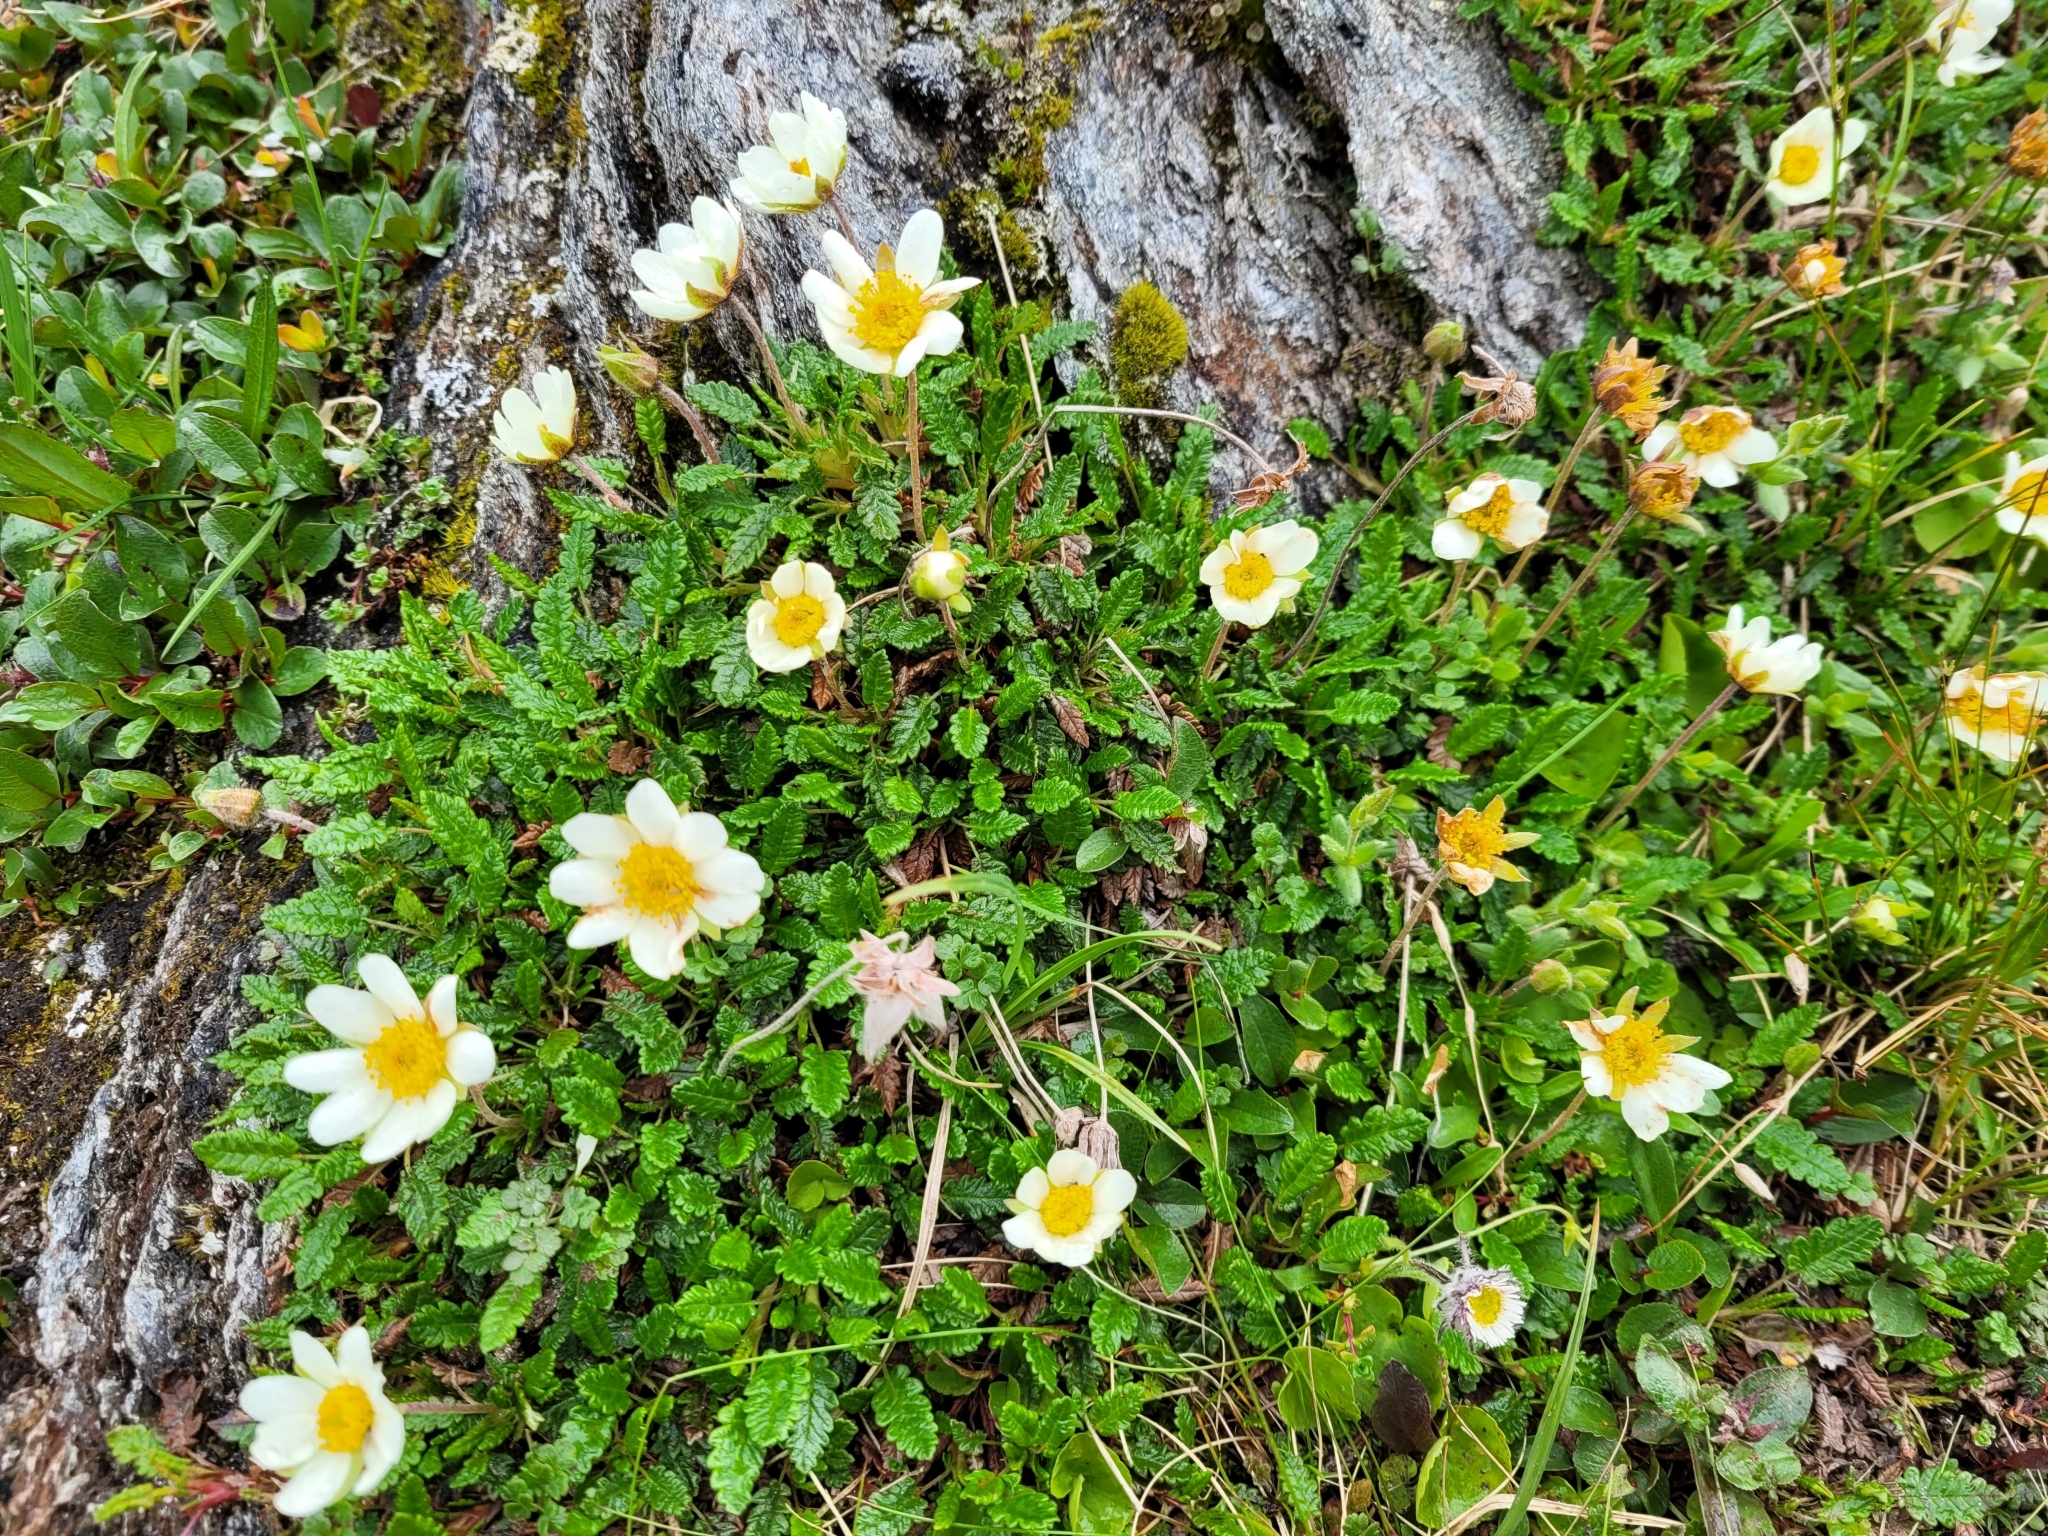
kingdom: Plantae
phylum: Tracheophyta
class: Magnoliopsida
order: Rosales
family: Rosaceae
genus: Dryas
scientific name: Dryas octopetala
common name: Eight-petal mountain-avens
